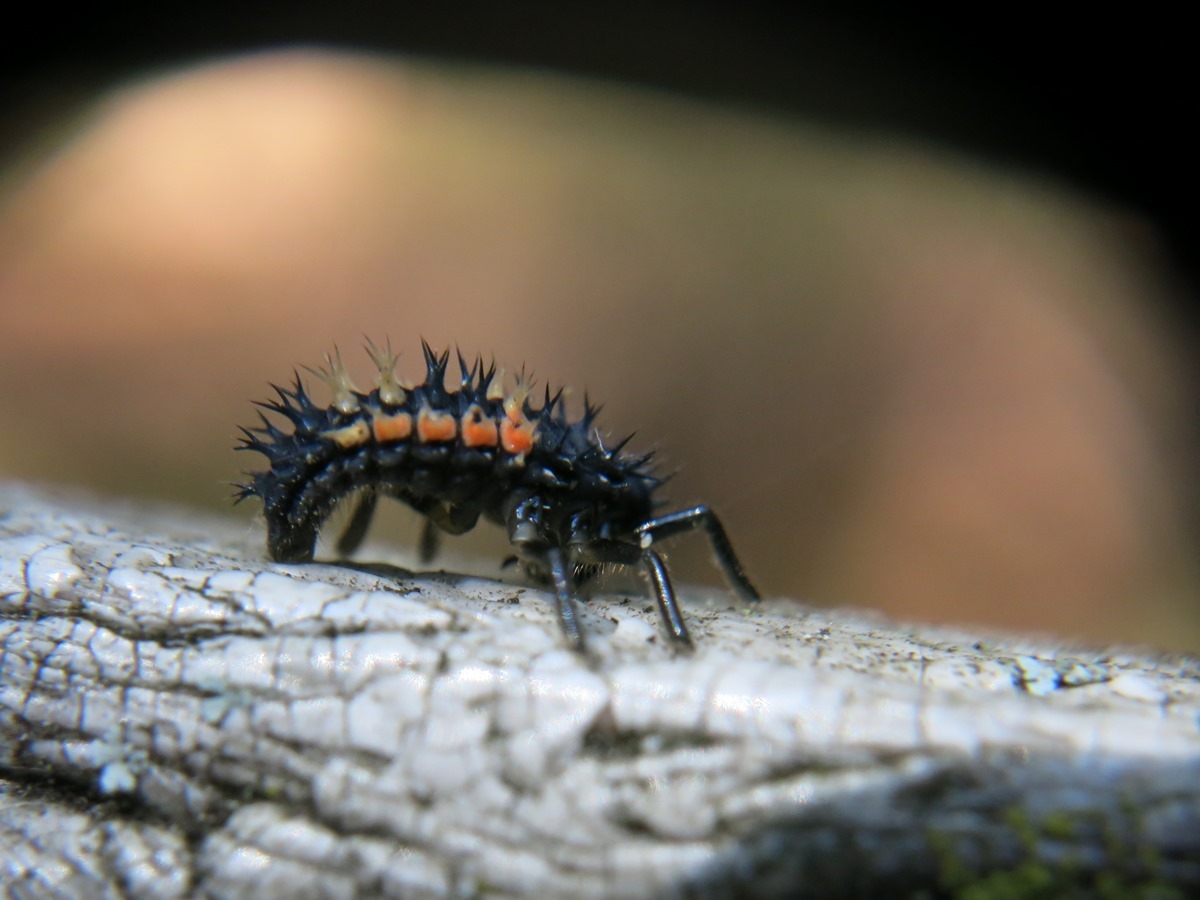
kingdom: Animalia
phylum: Arthropoda
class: Insecta
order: Coleoptera
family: Coccinellidae
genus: Harmonia
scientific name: Harmonia axyridis
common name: Harlequin ladybird
